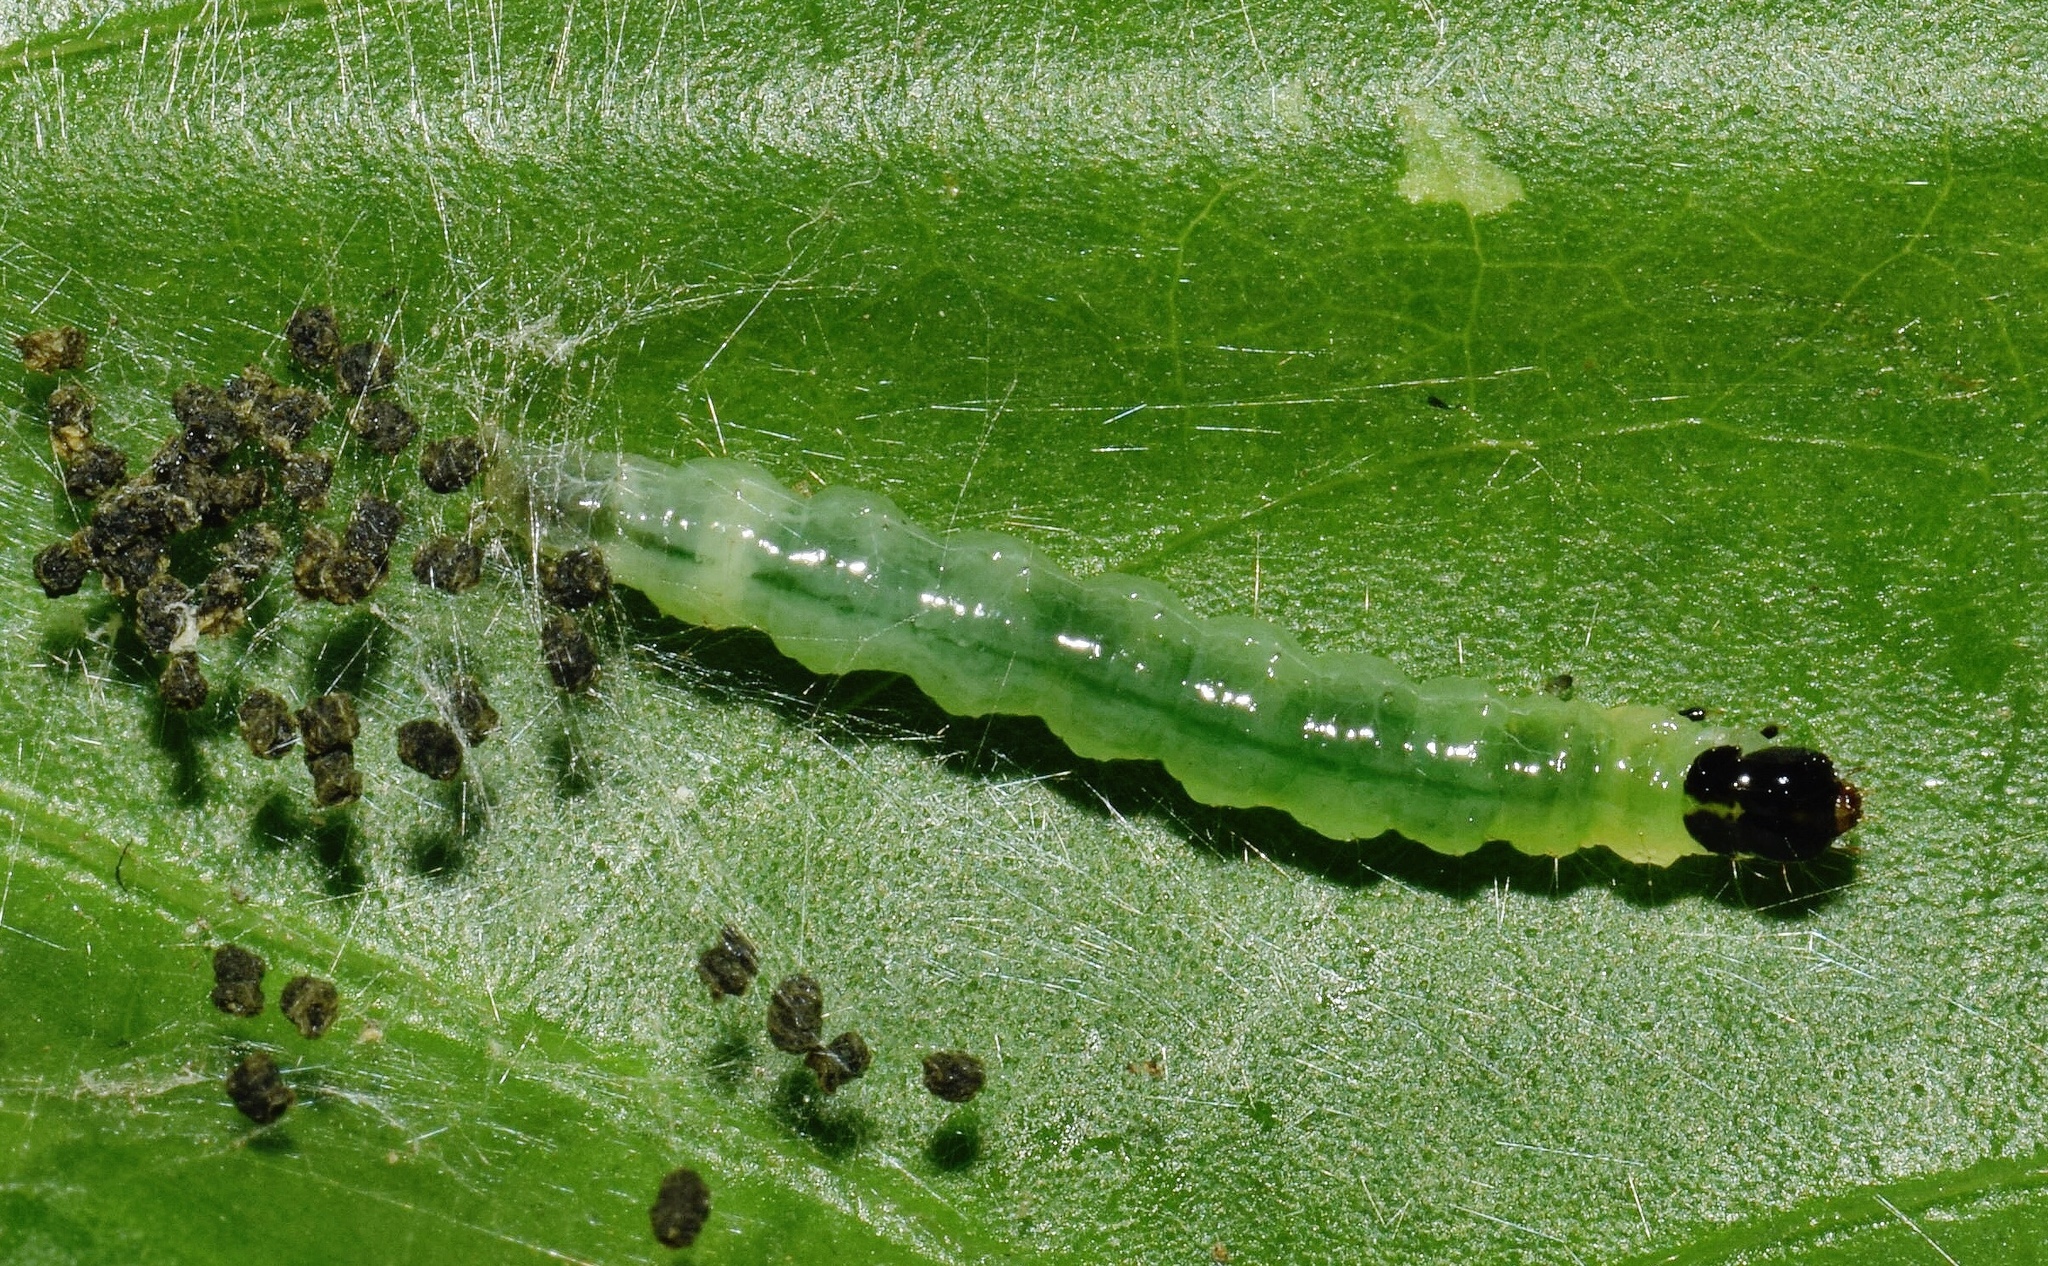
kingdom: Animalia
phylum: Arthropoda
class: Insecta
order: Lepidoptera
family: Crambidae
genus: Haritalodes
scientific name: Haritalodes derogata
